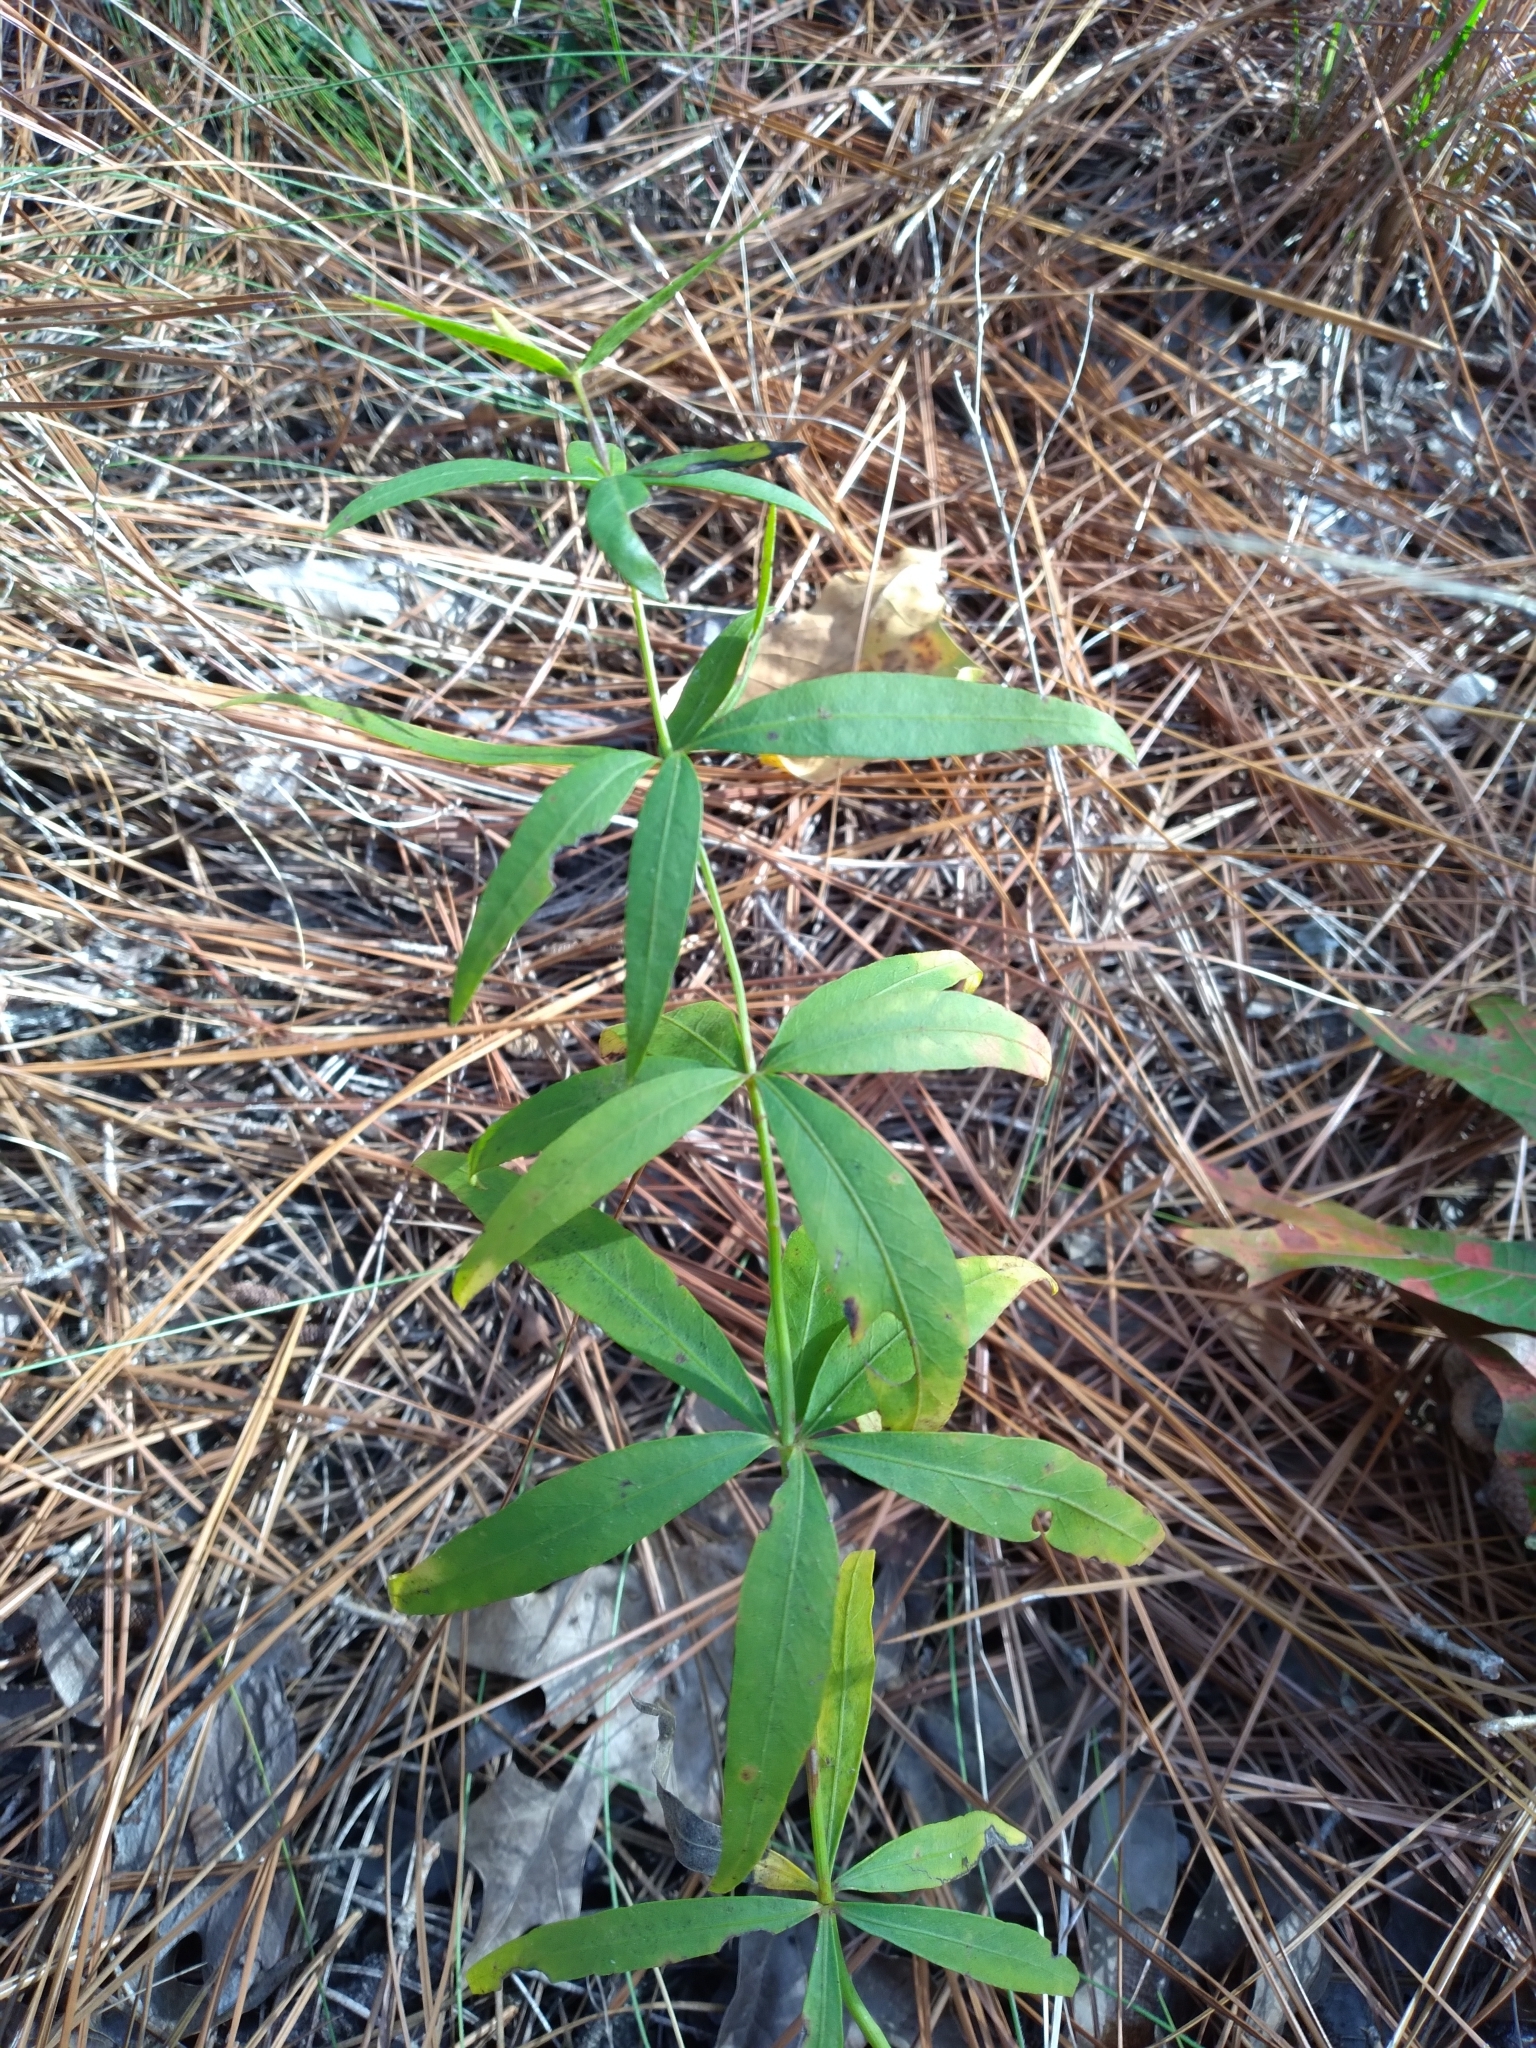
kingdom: Plantae
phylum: Tracheophyta
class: Magnoliopsida
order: Asterales
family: Asteraceae
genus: Coreopsis
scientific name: Coreopsis major
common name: Forest tickseed
